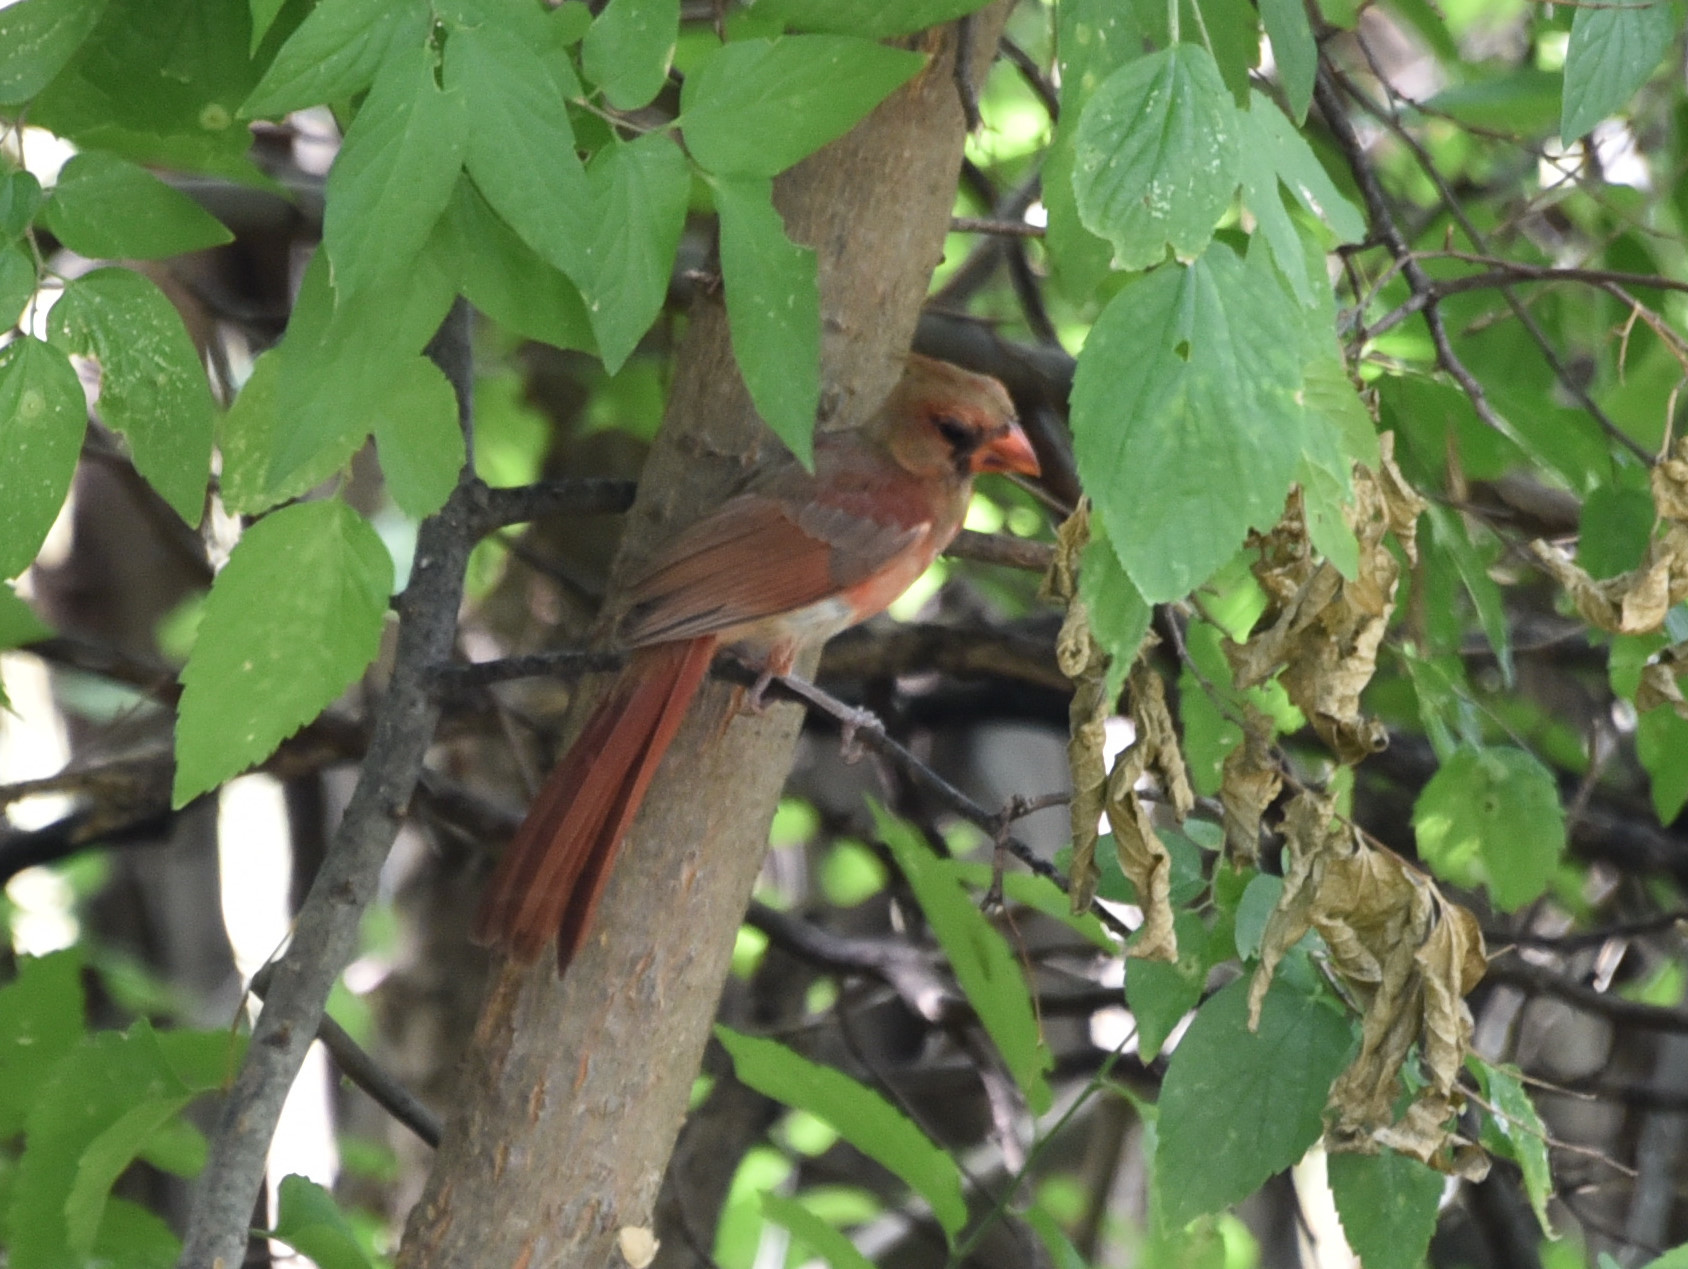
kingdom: Animalia
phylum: Chordata
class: Aves
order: Passeriformes
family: Cardinalidae
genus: Cardinalis
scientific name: Cardinalis cardinalis
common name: Northern cardinal
